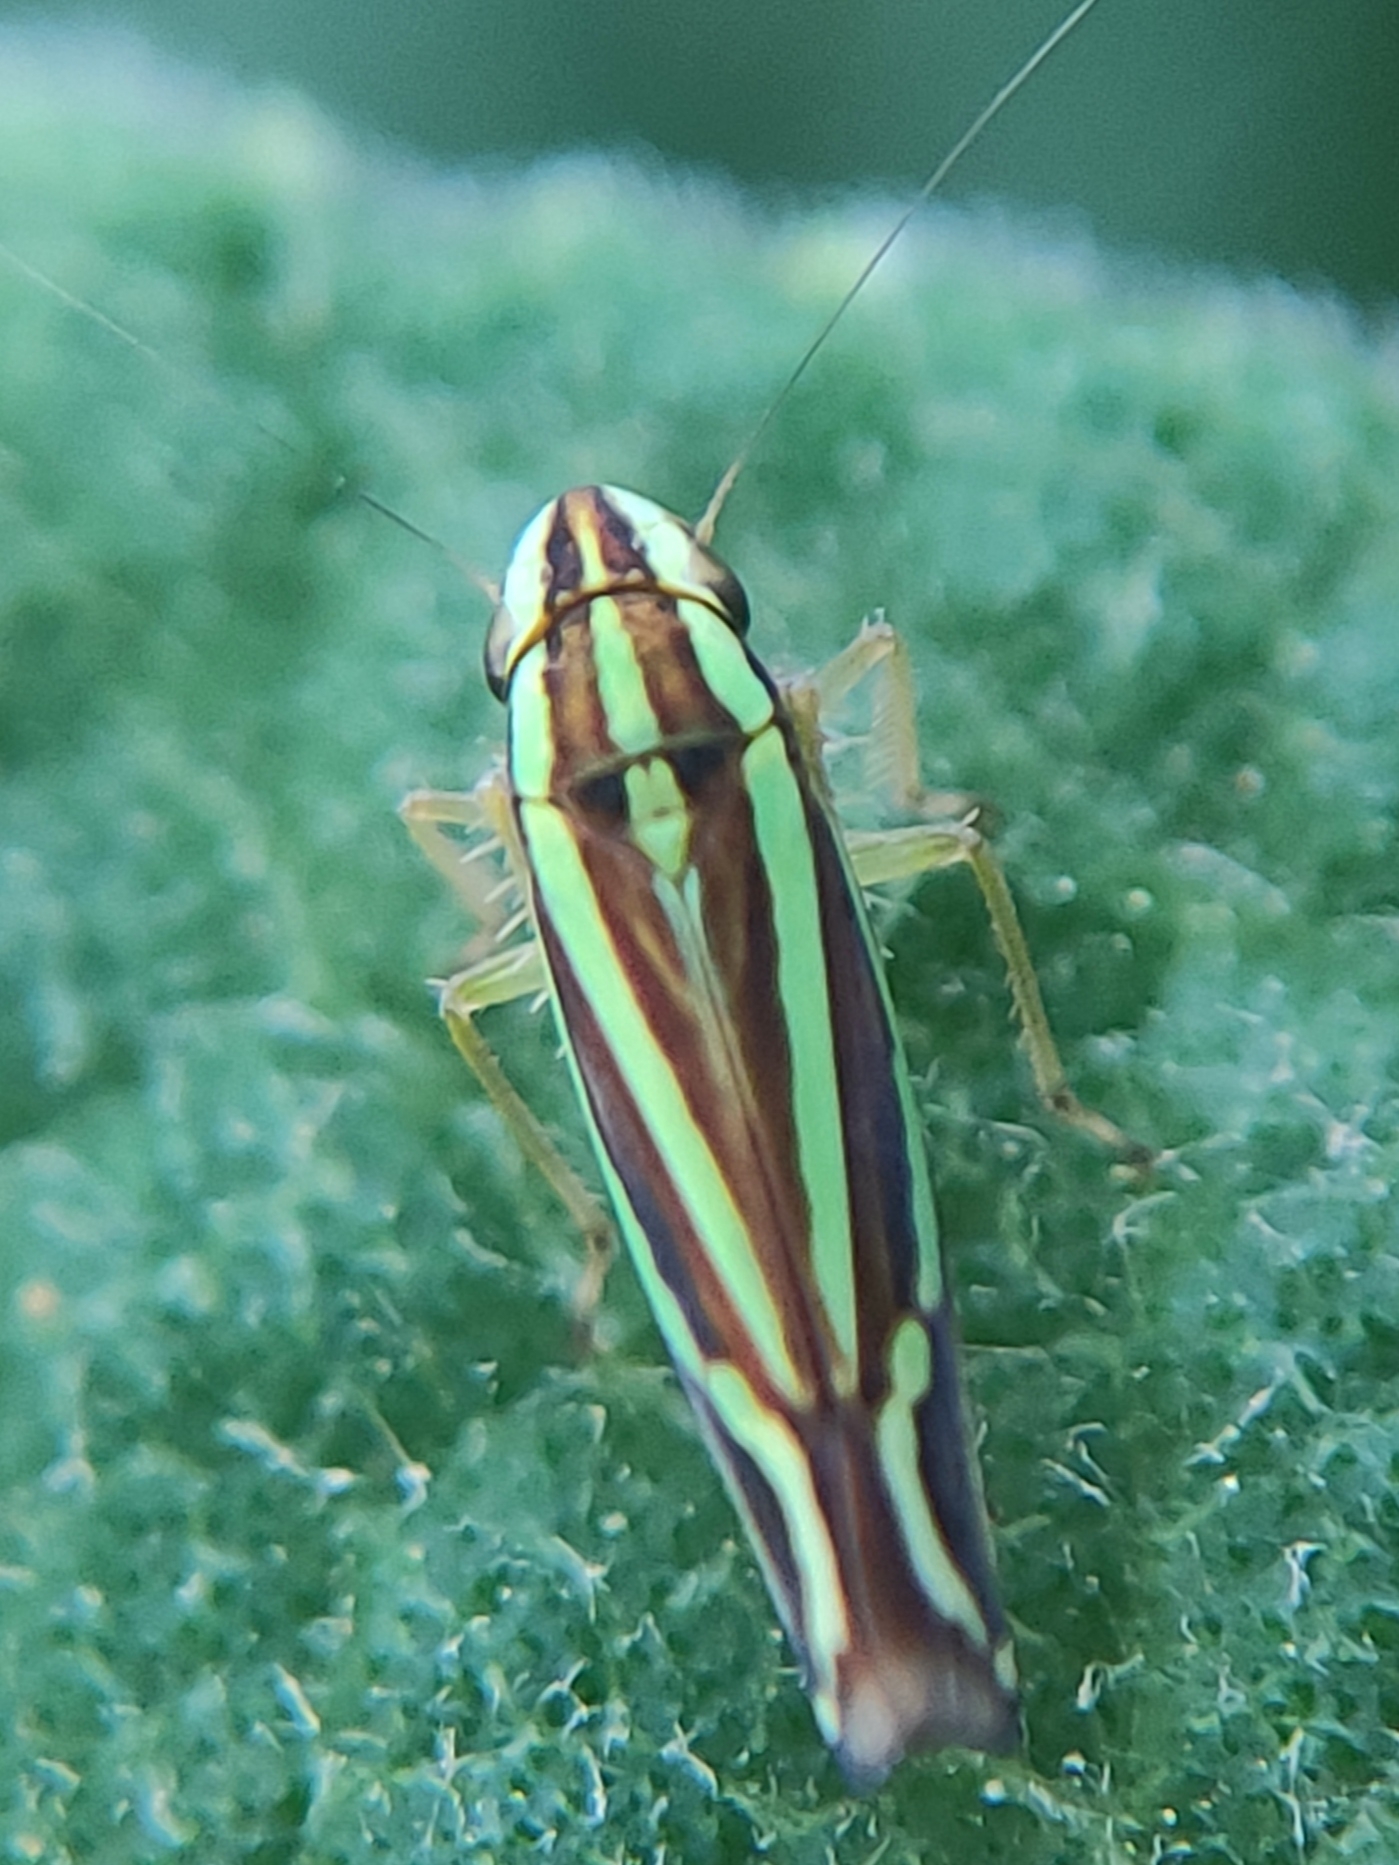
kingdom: Animalia
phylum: Arthropoda
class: Insecta
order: Hemiptera
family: Cicadellidae
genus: Sibovia
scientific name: Sibovia sagata
